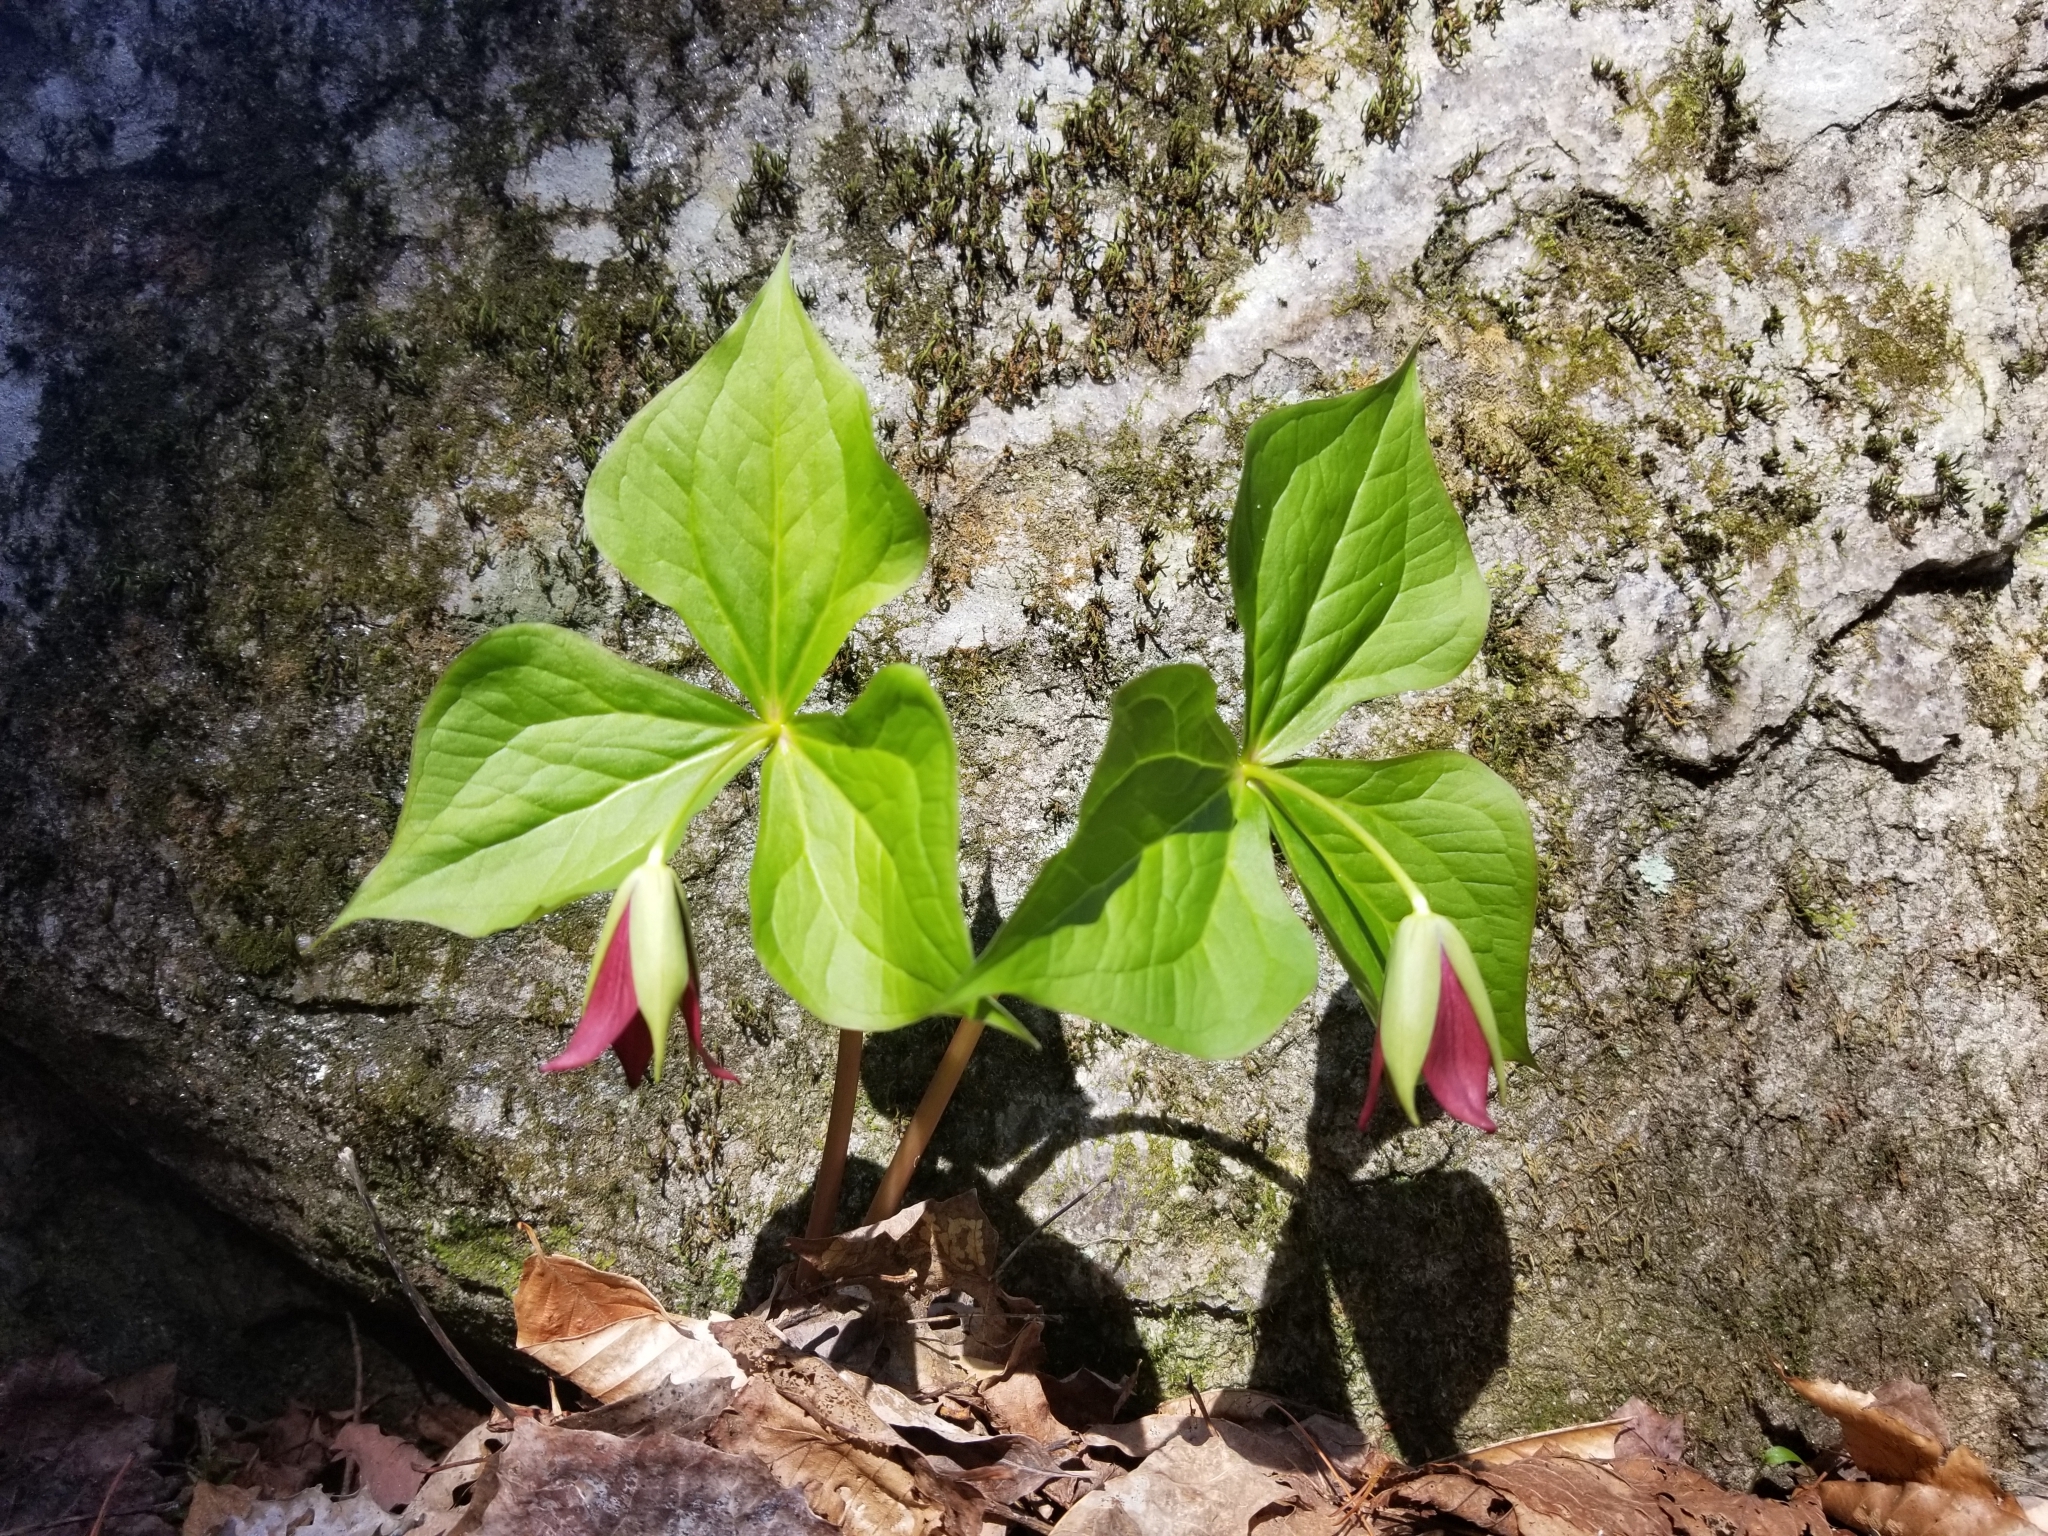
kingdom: Plantae
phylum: Tracheophyta
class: Liliopsida
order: Liliales
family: Melanthiaceae
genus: Trillium
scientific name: Trillium erectum
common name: Purple trillium
